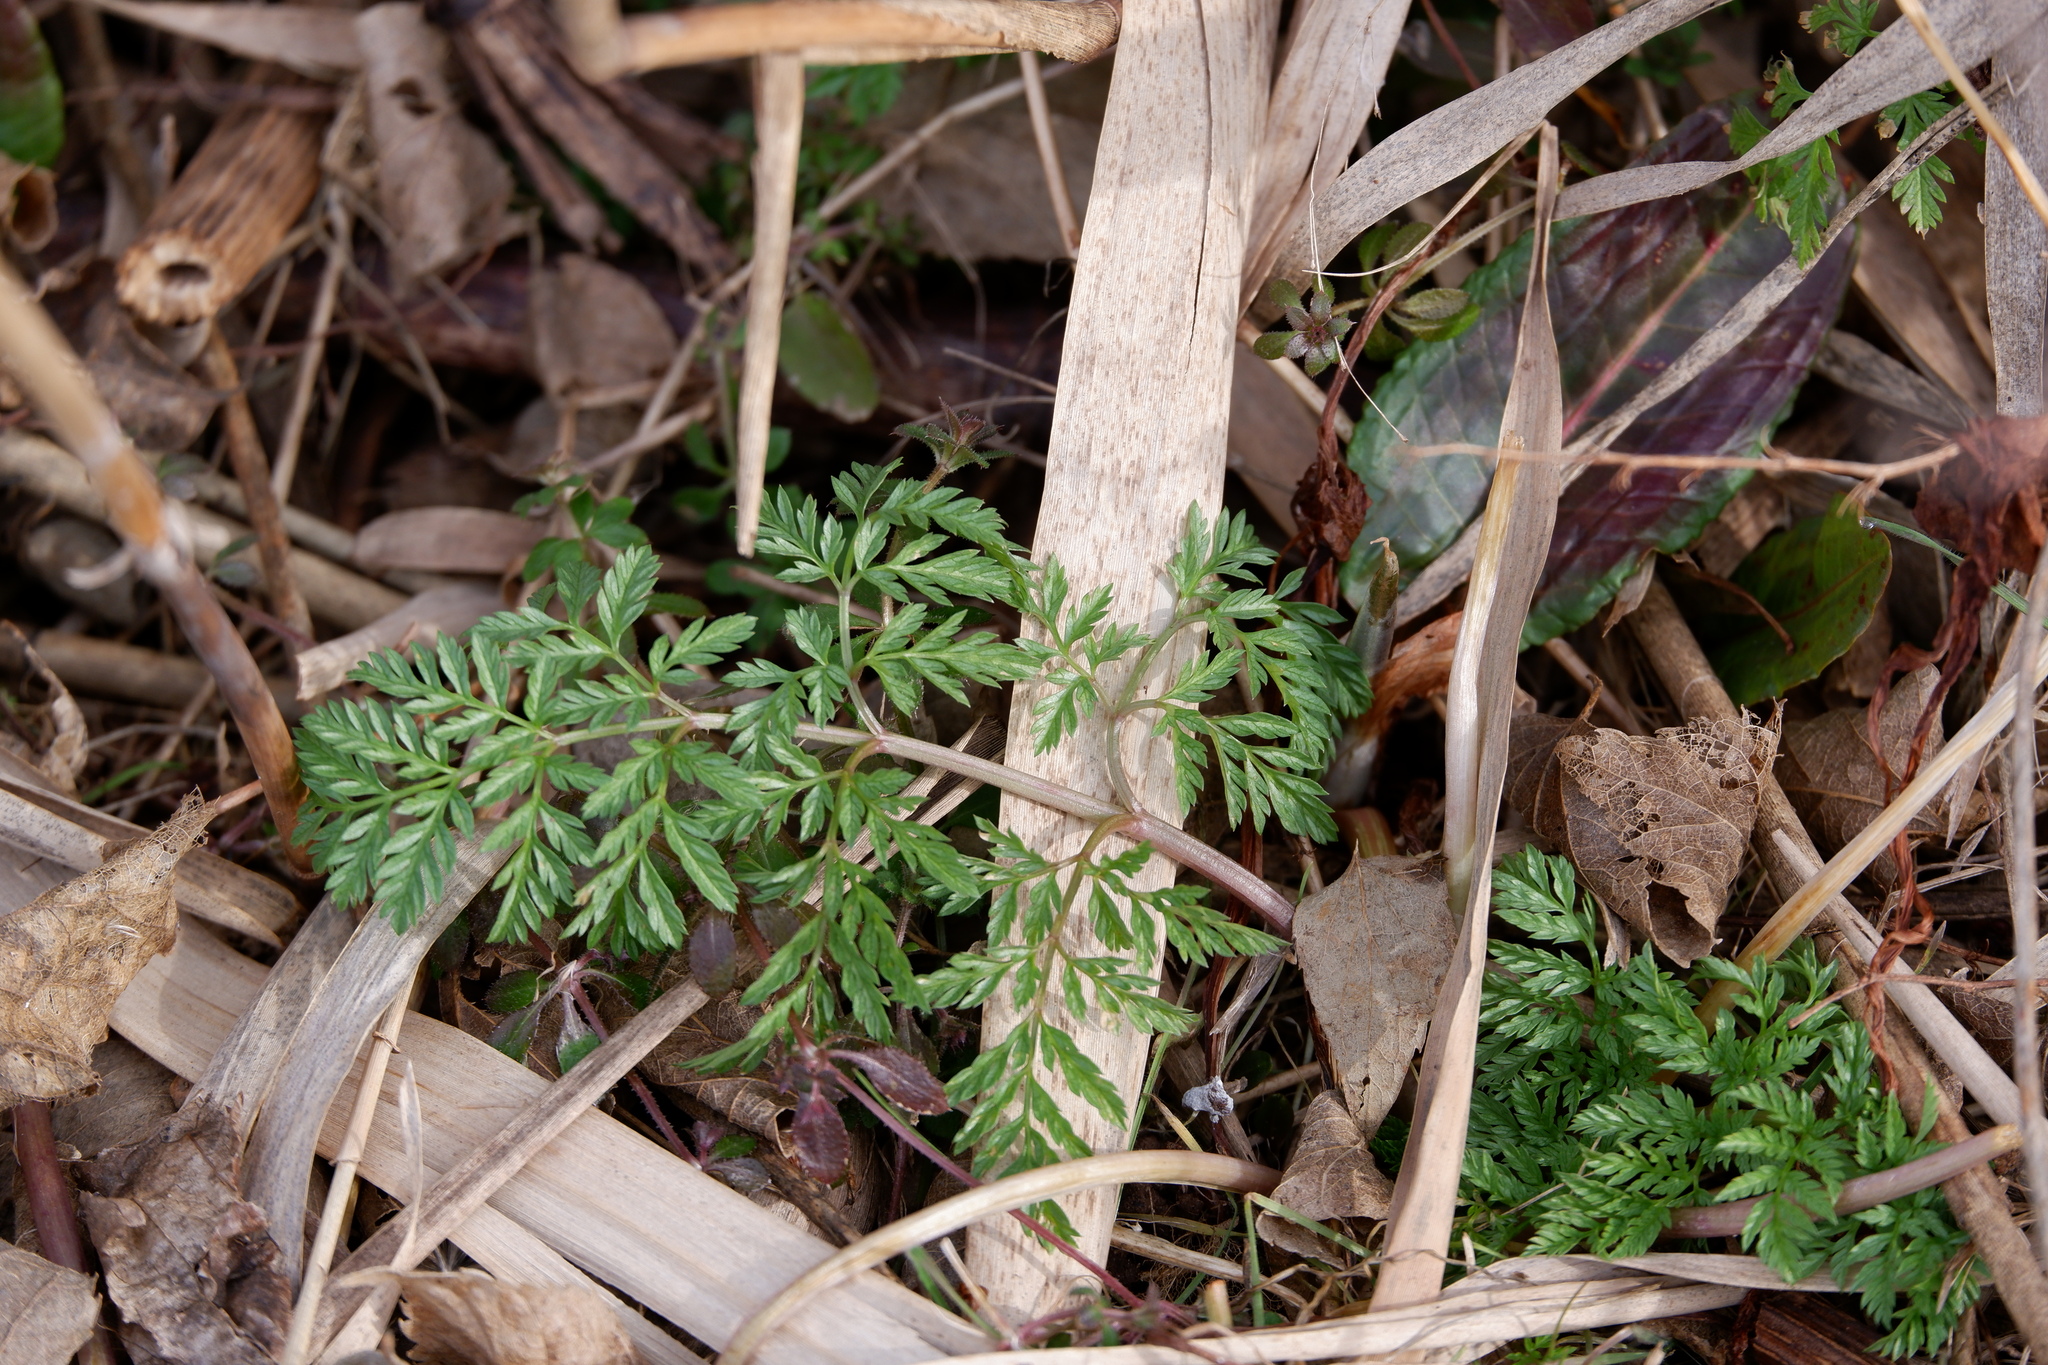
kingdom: Plantae
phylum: Tracheophyta
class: Magnoliopsida
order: Apiales
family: Apiaceae
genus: Conium
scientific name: Conium maculatum
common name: Hemlock
